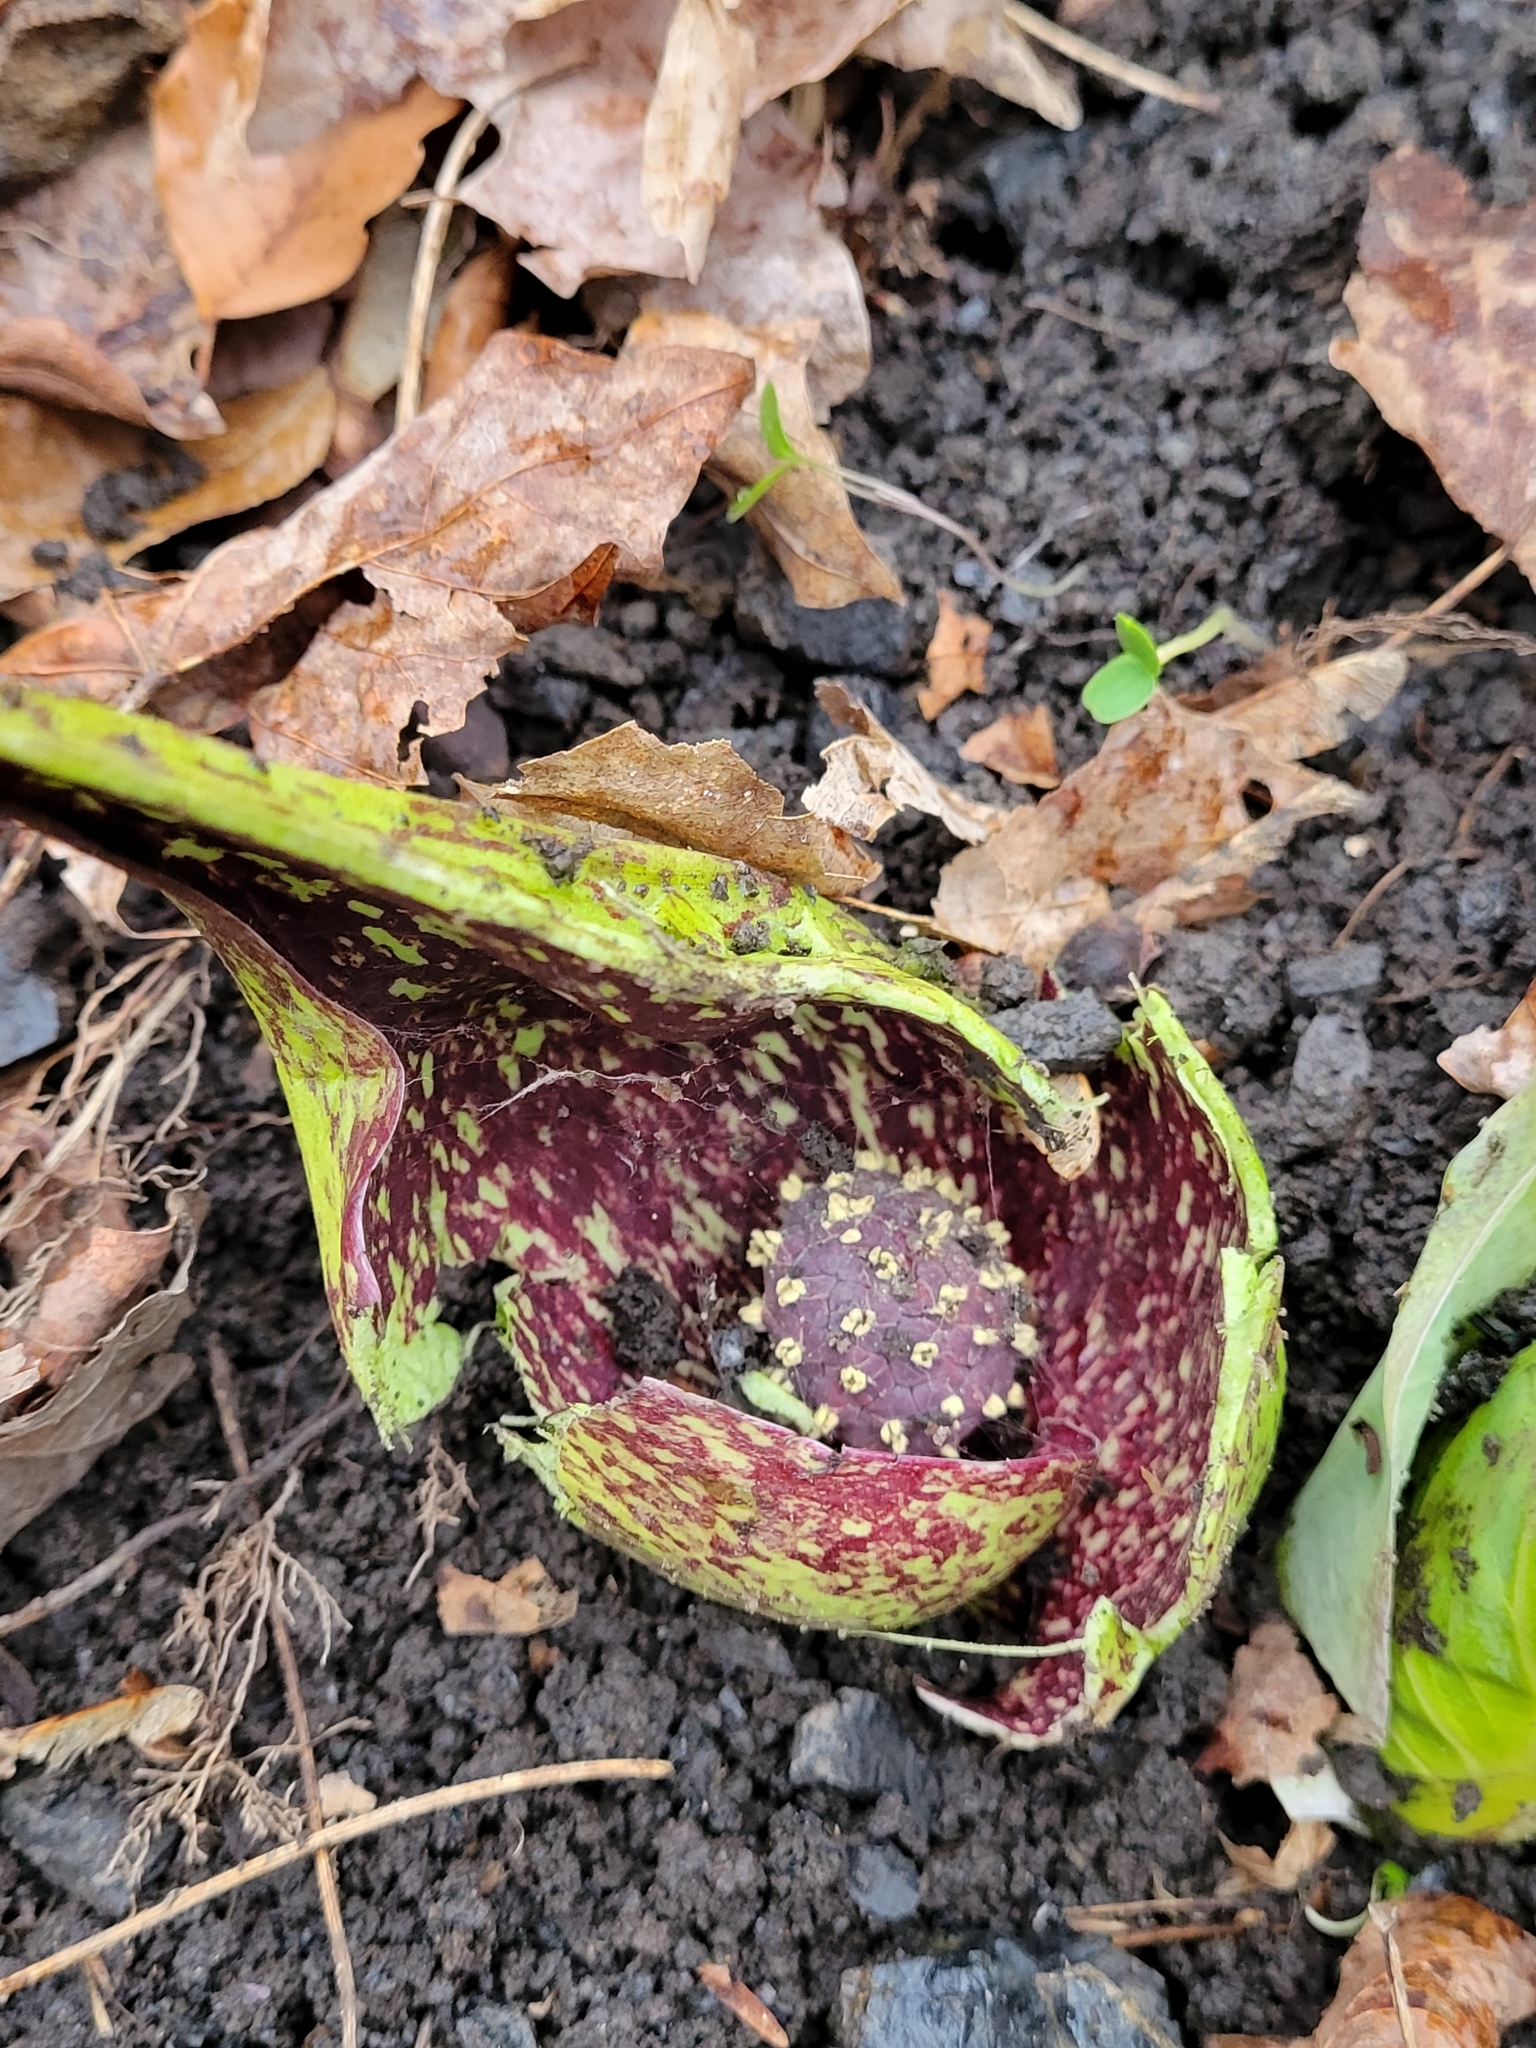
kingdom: Plantae
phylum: Tracheophyta
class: Liliopsida
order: Alismatales
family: Araceae
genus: Symplocarpus
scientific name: Symplocarpus foetidus
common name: Eastern skunk cabbage
